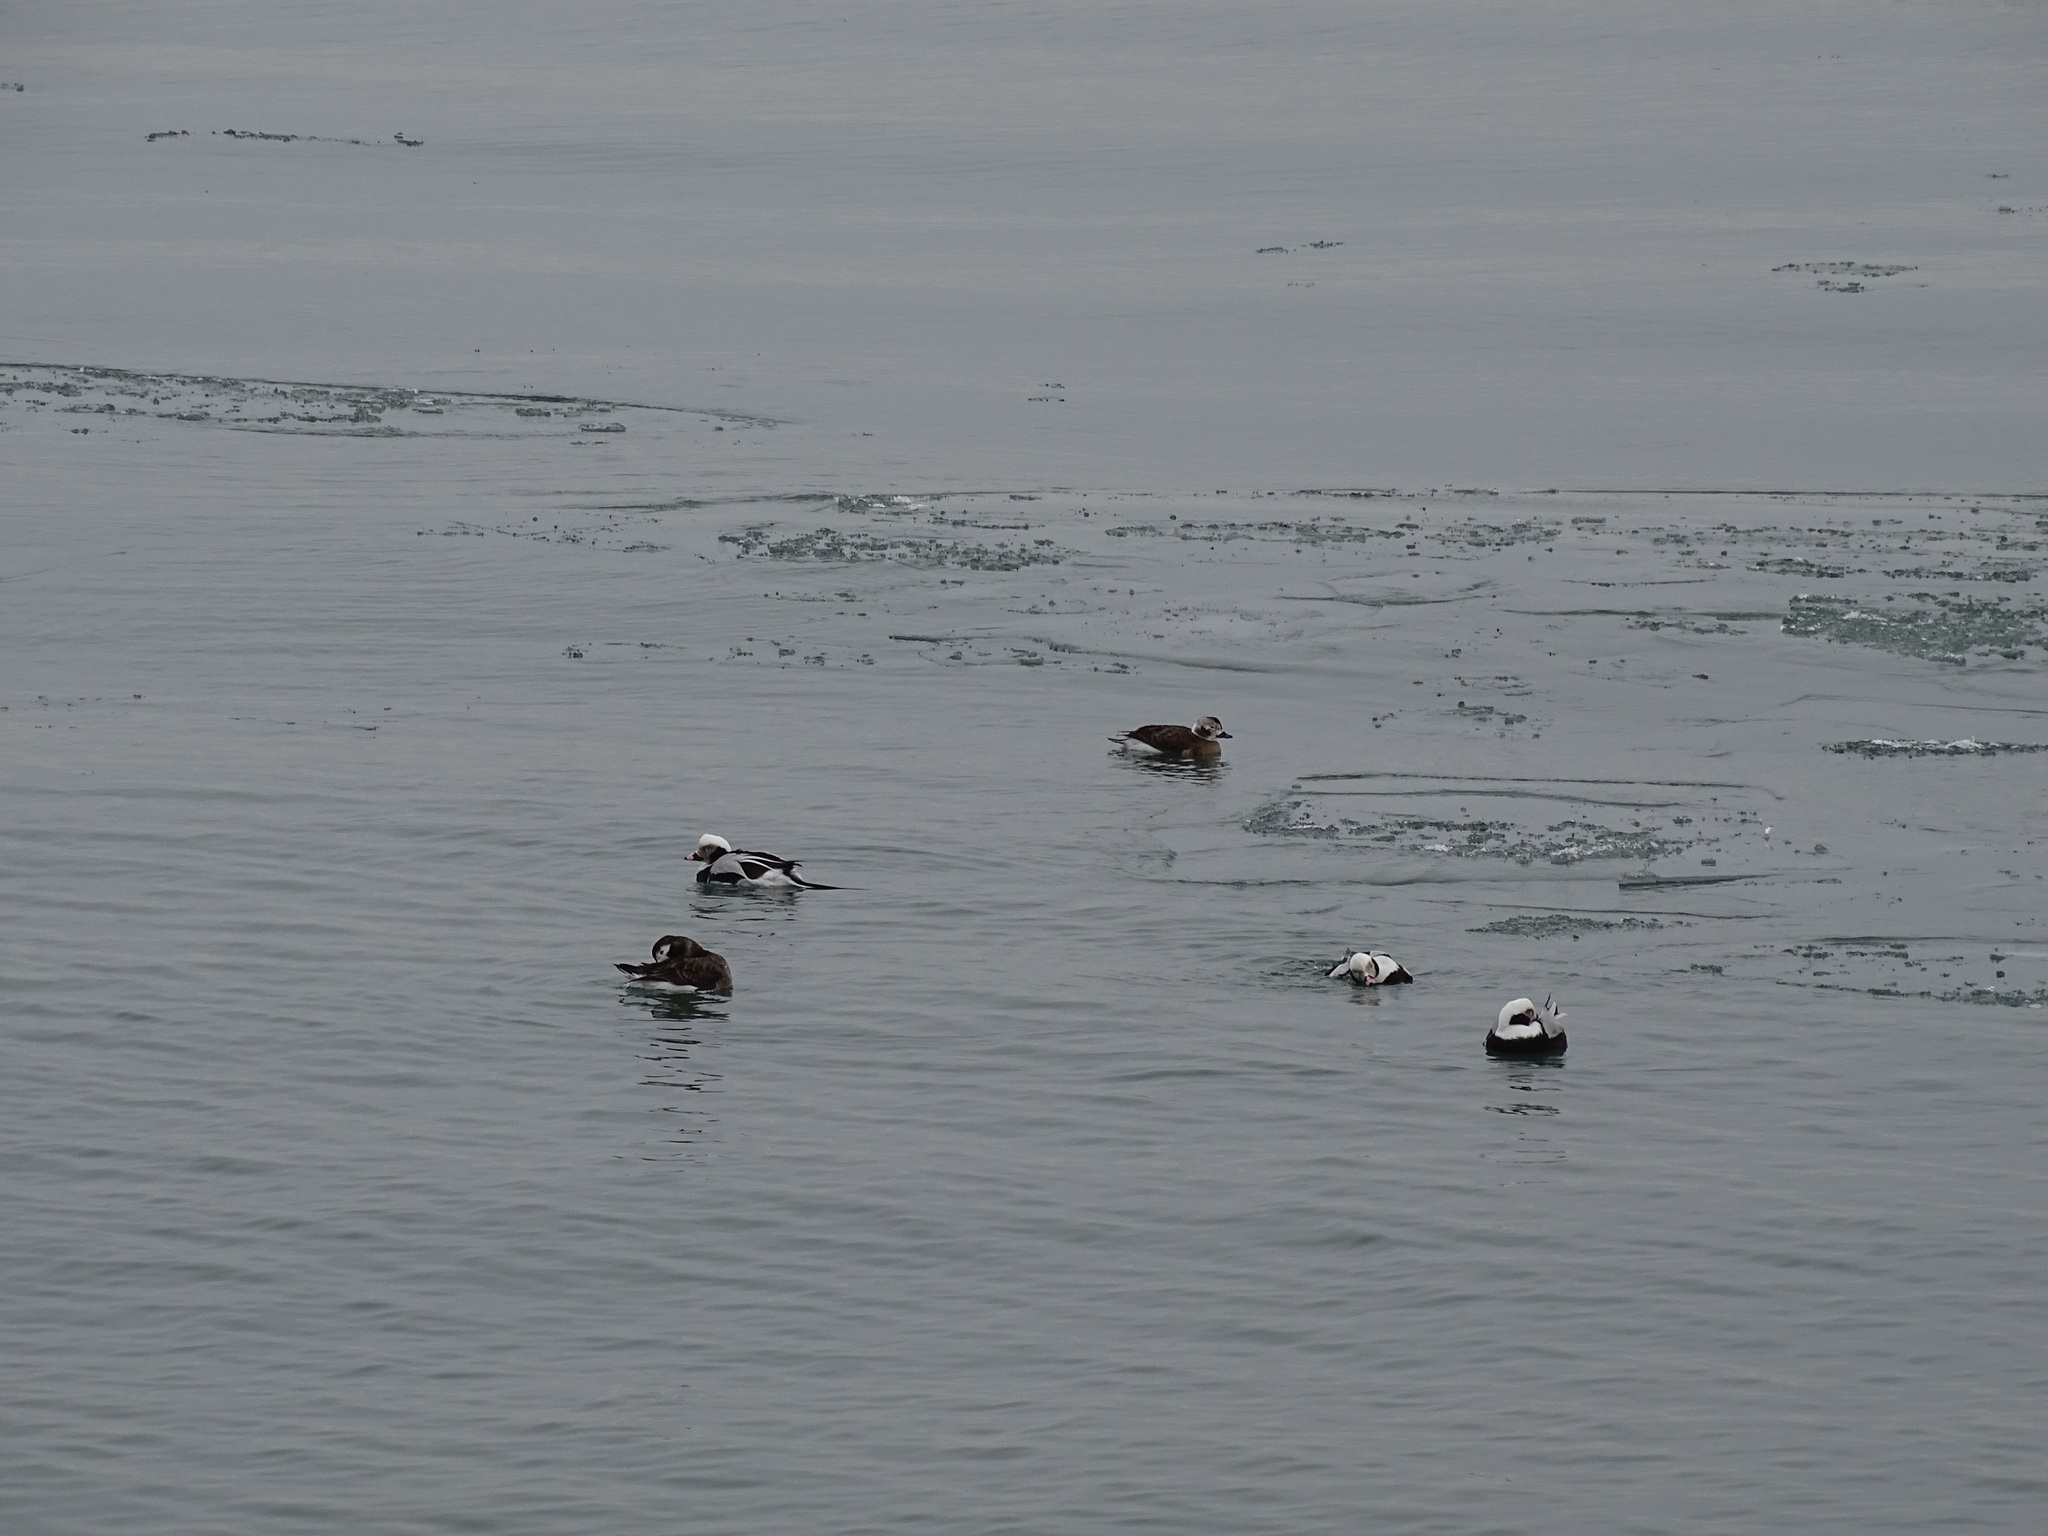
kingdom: Animalia
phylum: Chordata
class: Aves
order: Anseriformes
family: Anatidae
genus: Clangula
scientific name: Clangula hyemalis
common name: Long-tailed duck
